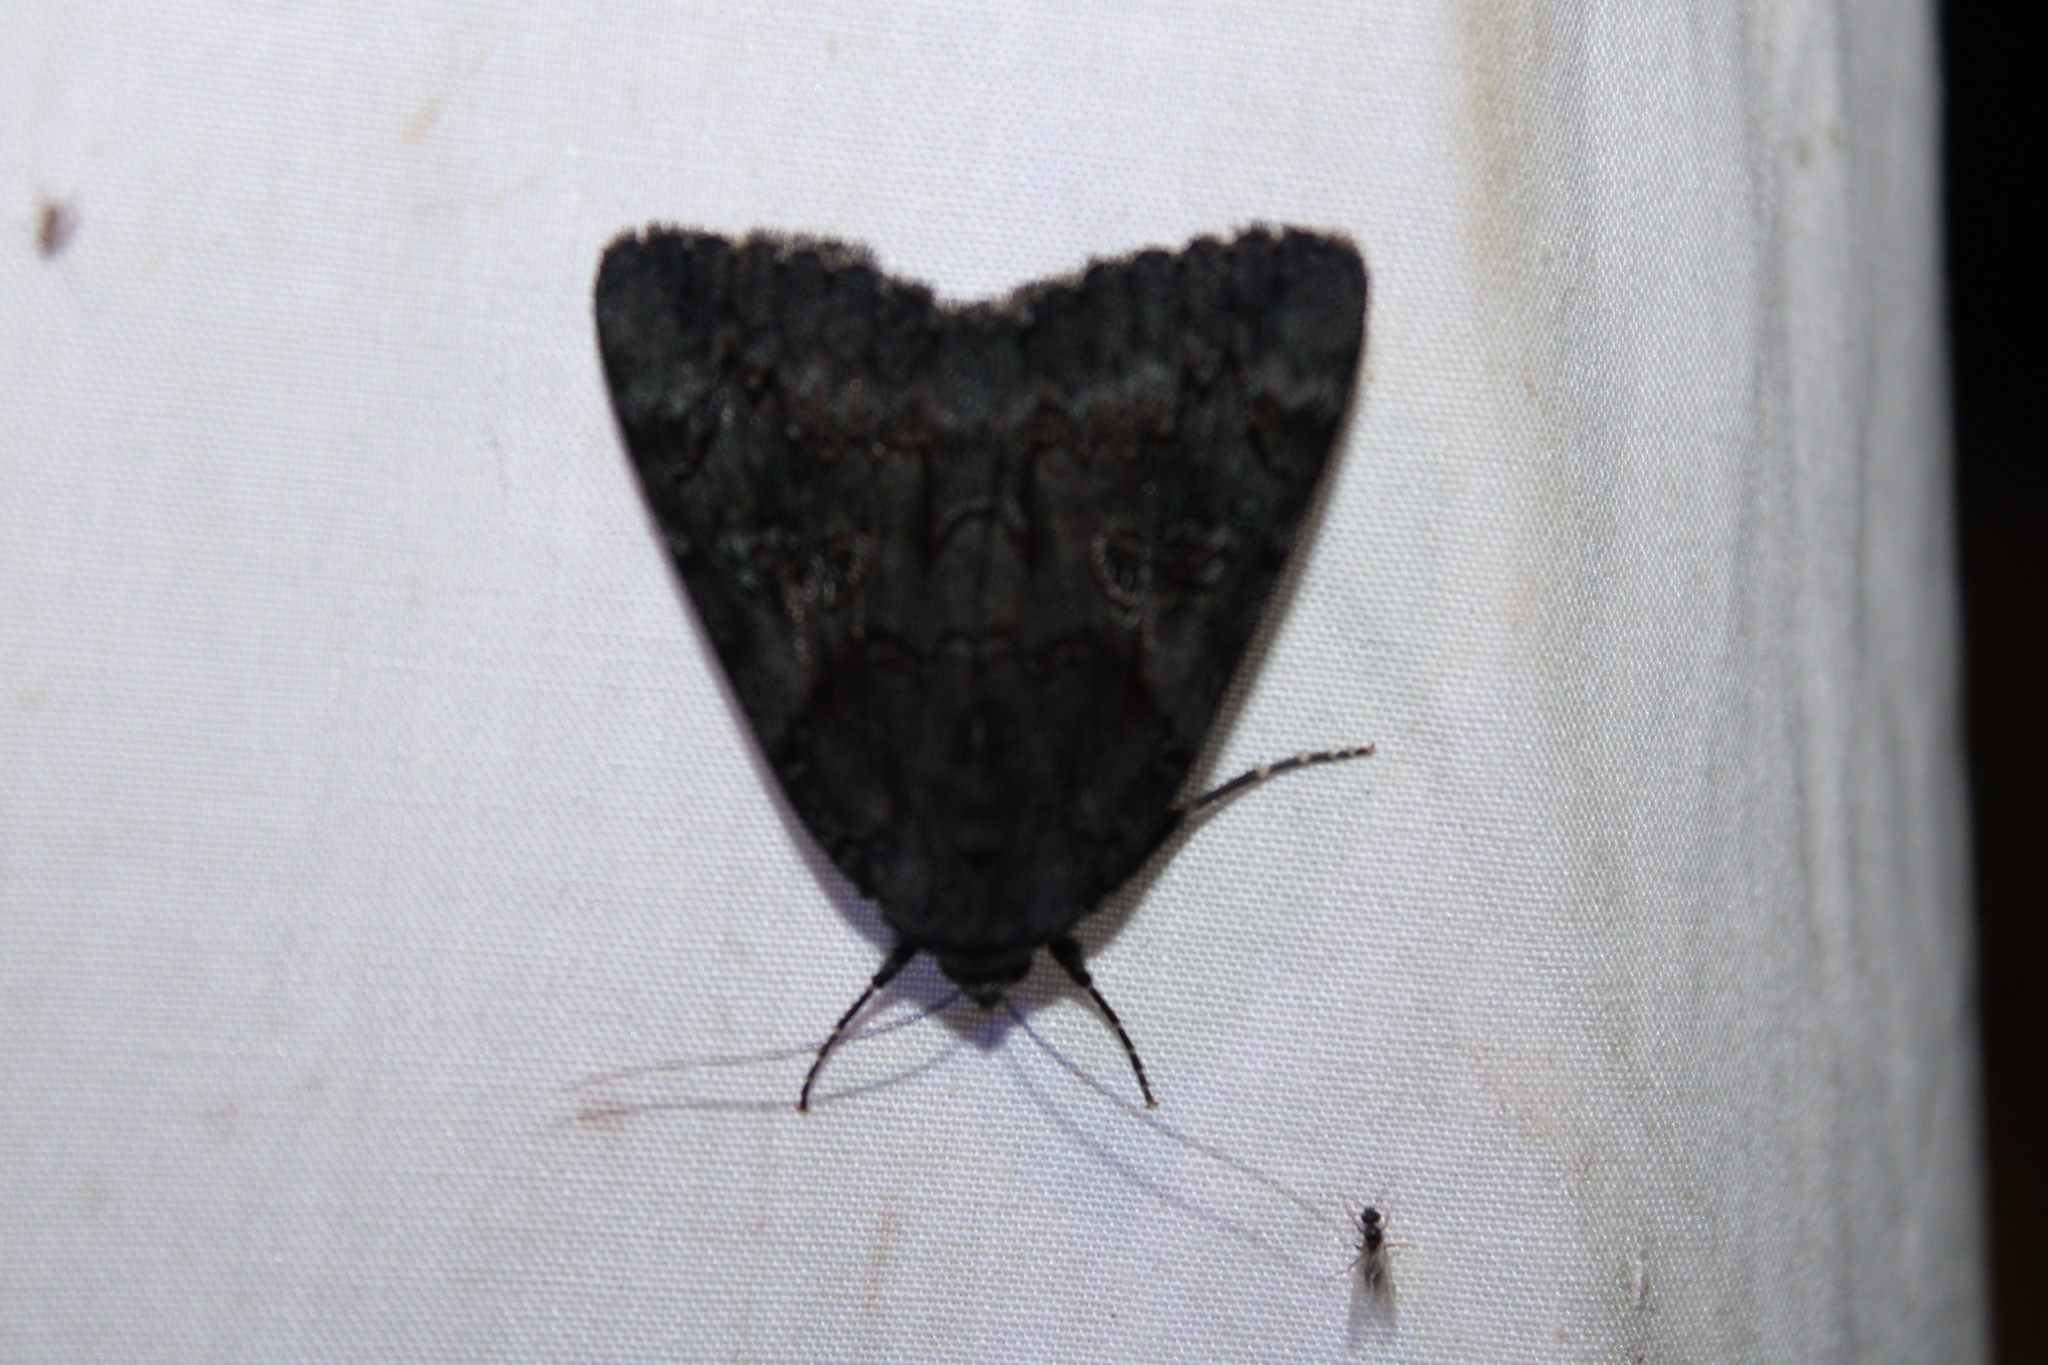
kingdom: Animalia
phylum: Arthropoda
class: Insecta
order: Lepidoptera
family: Erebidae
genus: Catocala
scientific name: Catocala antinympha
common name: Sweetfern underwing
